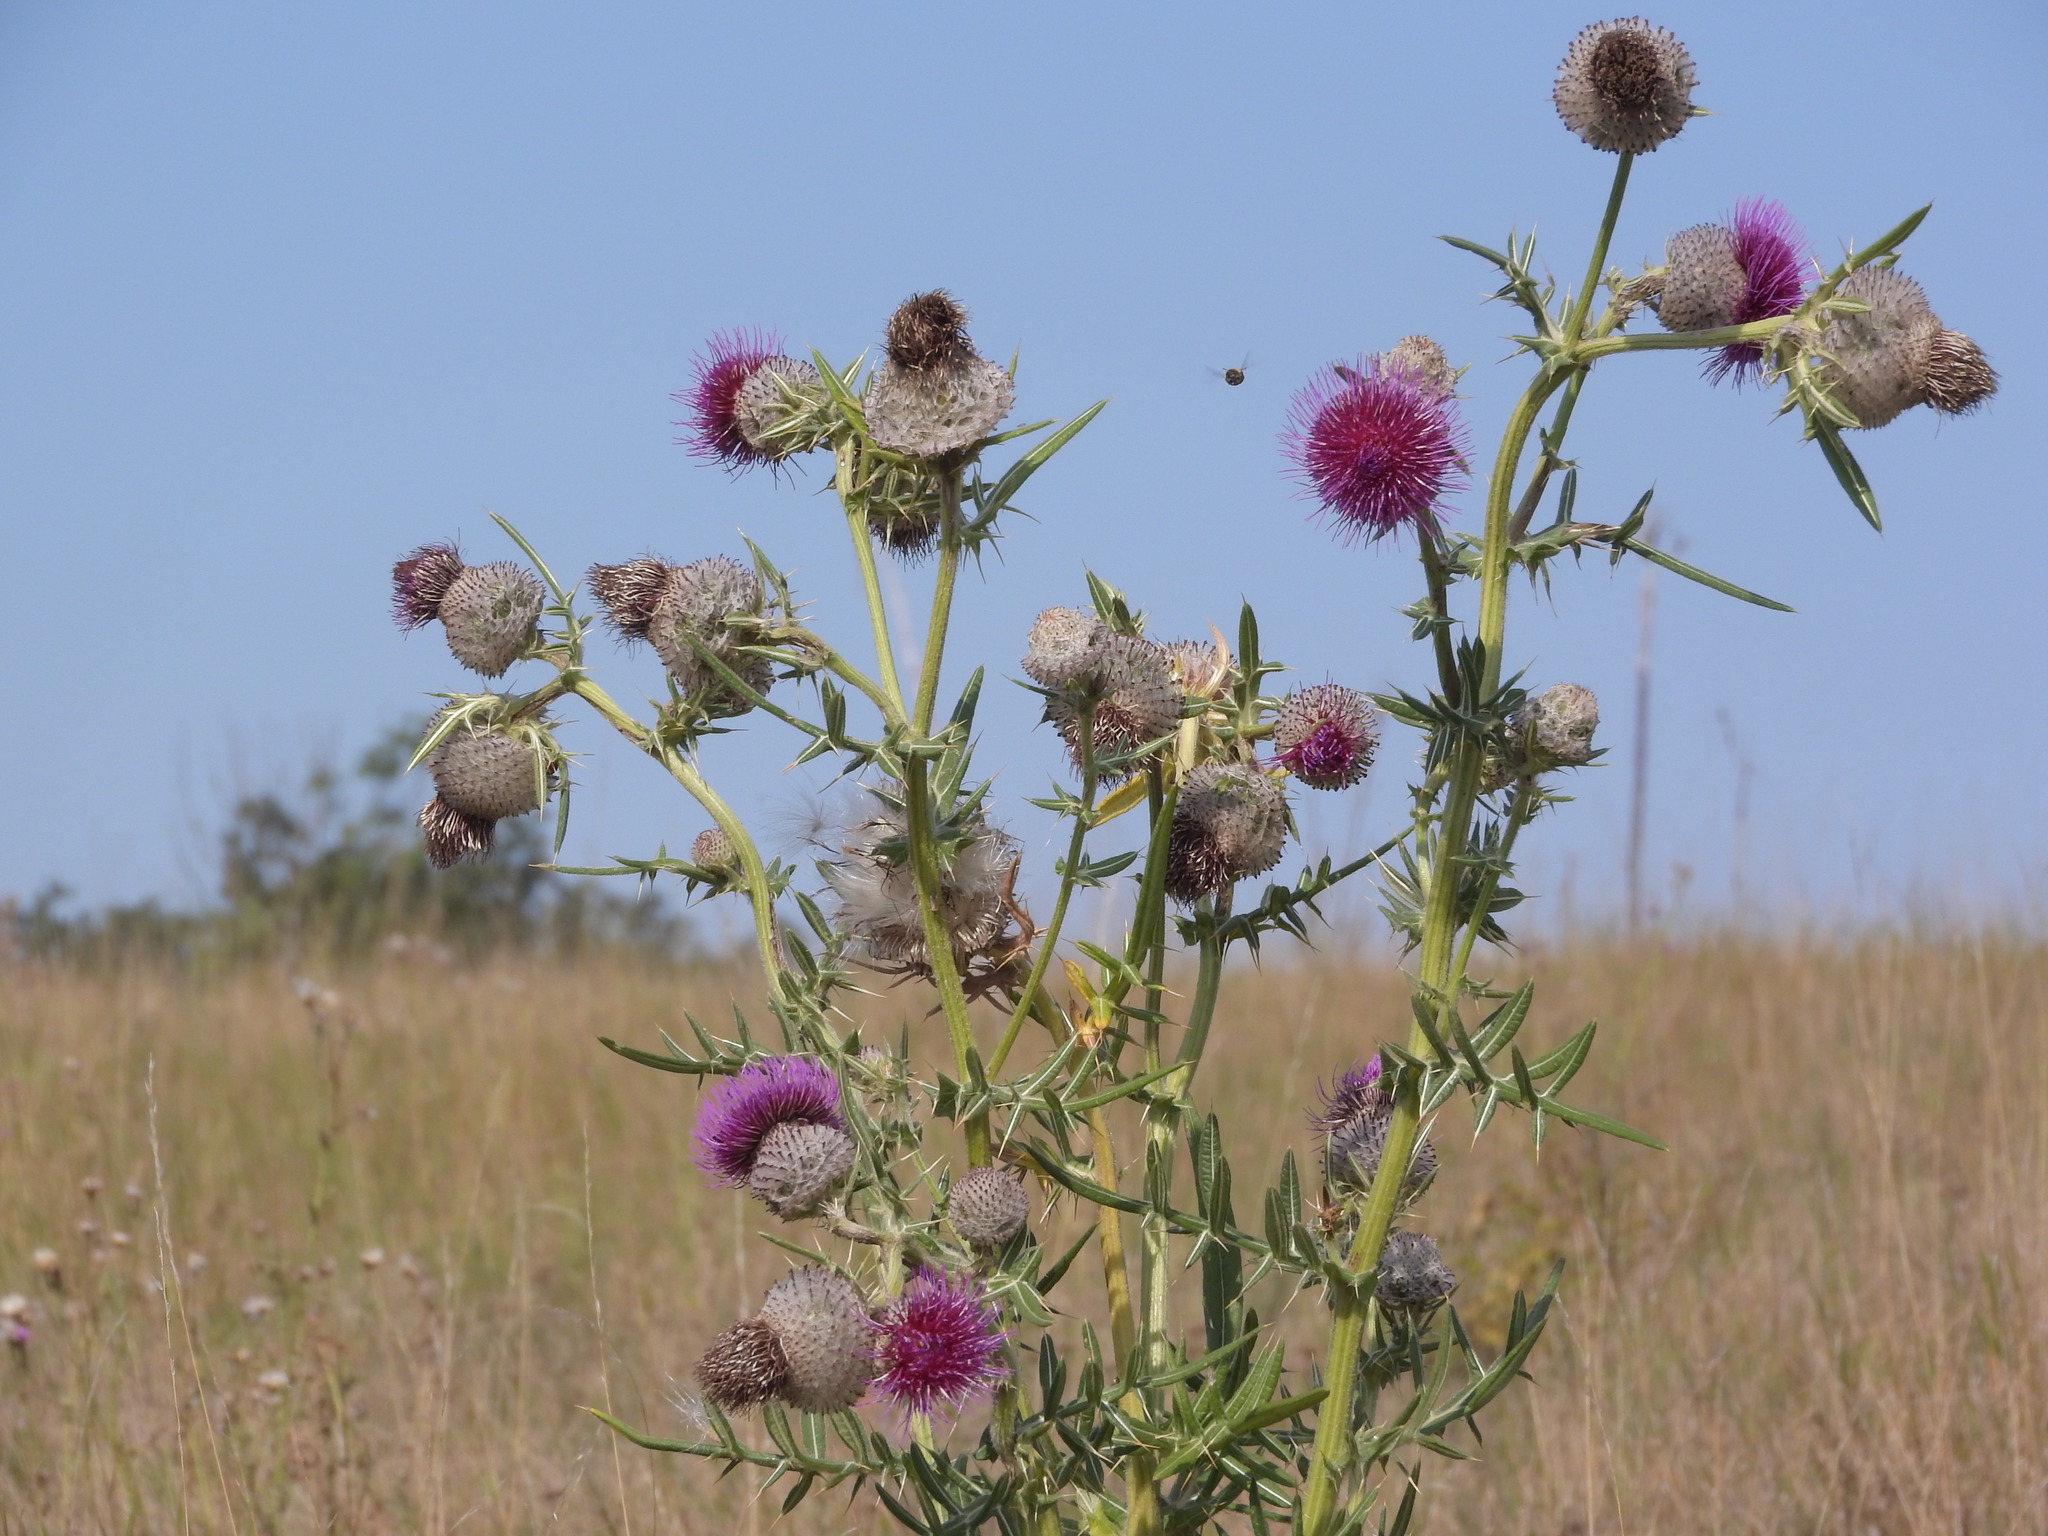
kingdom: Plantae
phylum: Tracheophyta
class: Magnoliopsida
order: Asterales
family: Asteraceae
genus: Lophiolepis
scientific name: Lophiolepis eriophora
